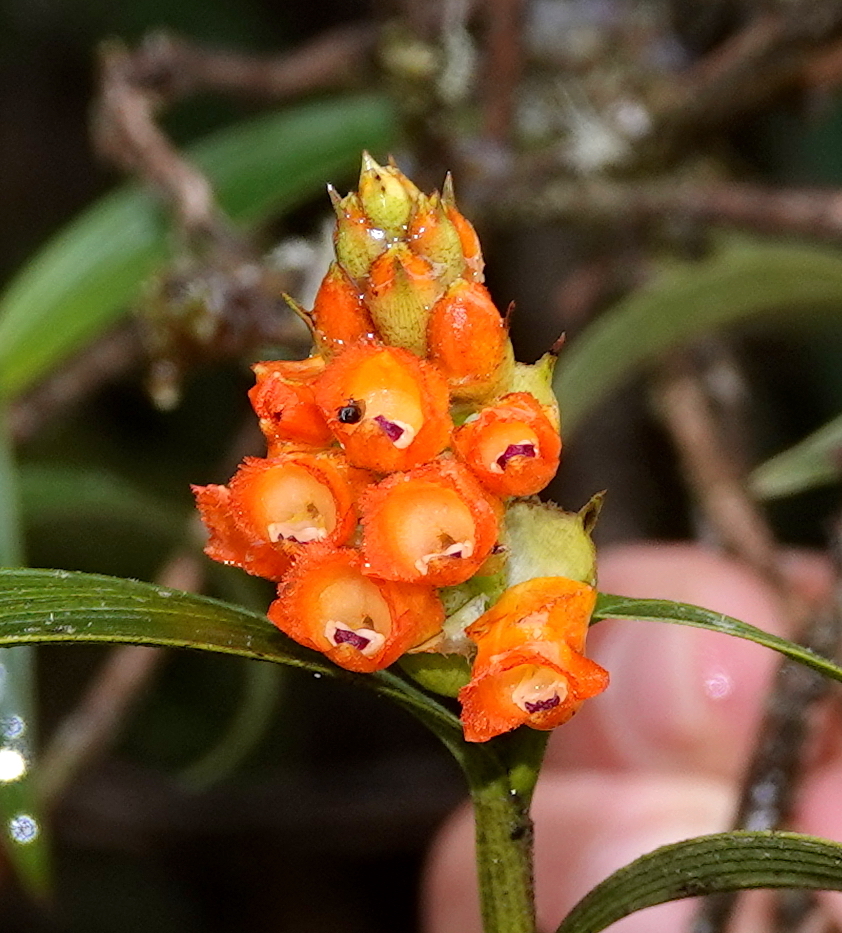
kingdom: Plantae
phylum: Tracheophyta
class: Liliopsida
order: Asparagales
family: Orchidaceae
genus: Elleanthus
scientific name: Elleanthus aurantiacus
